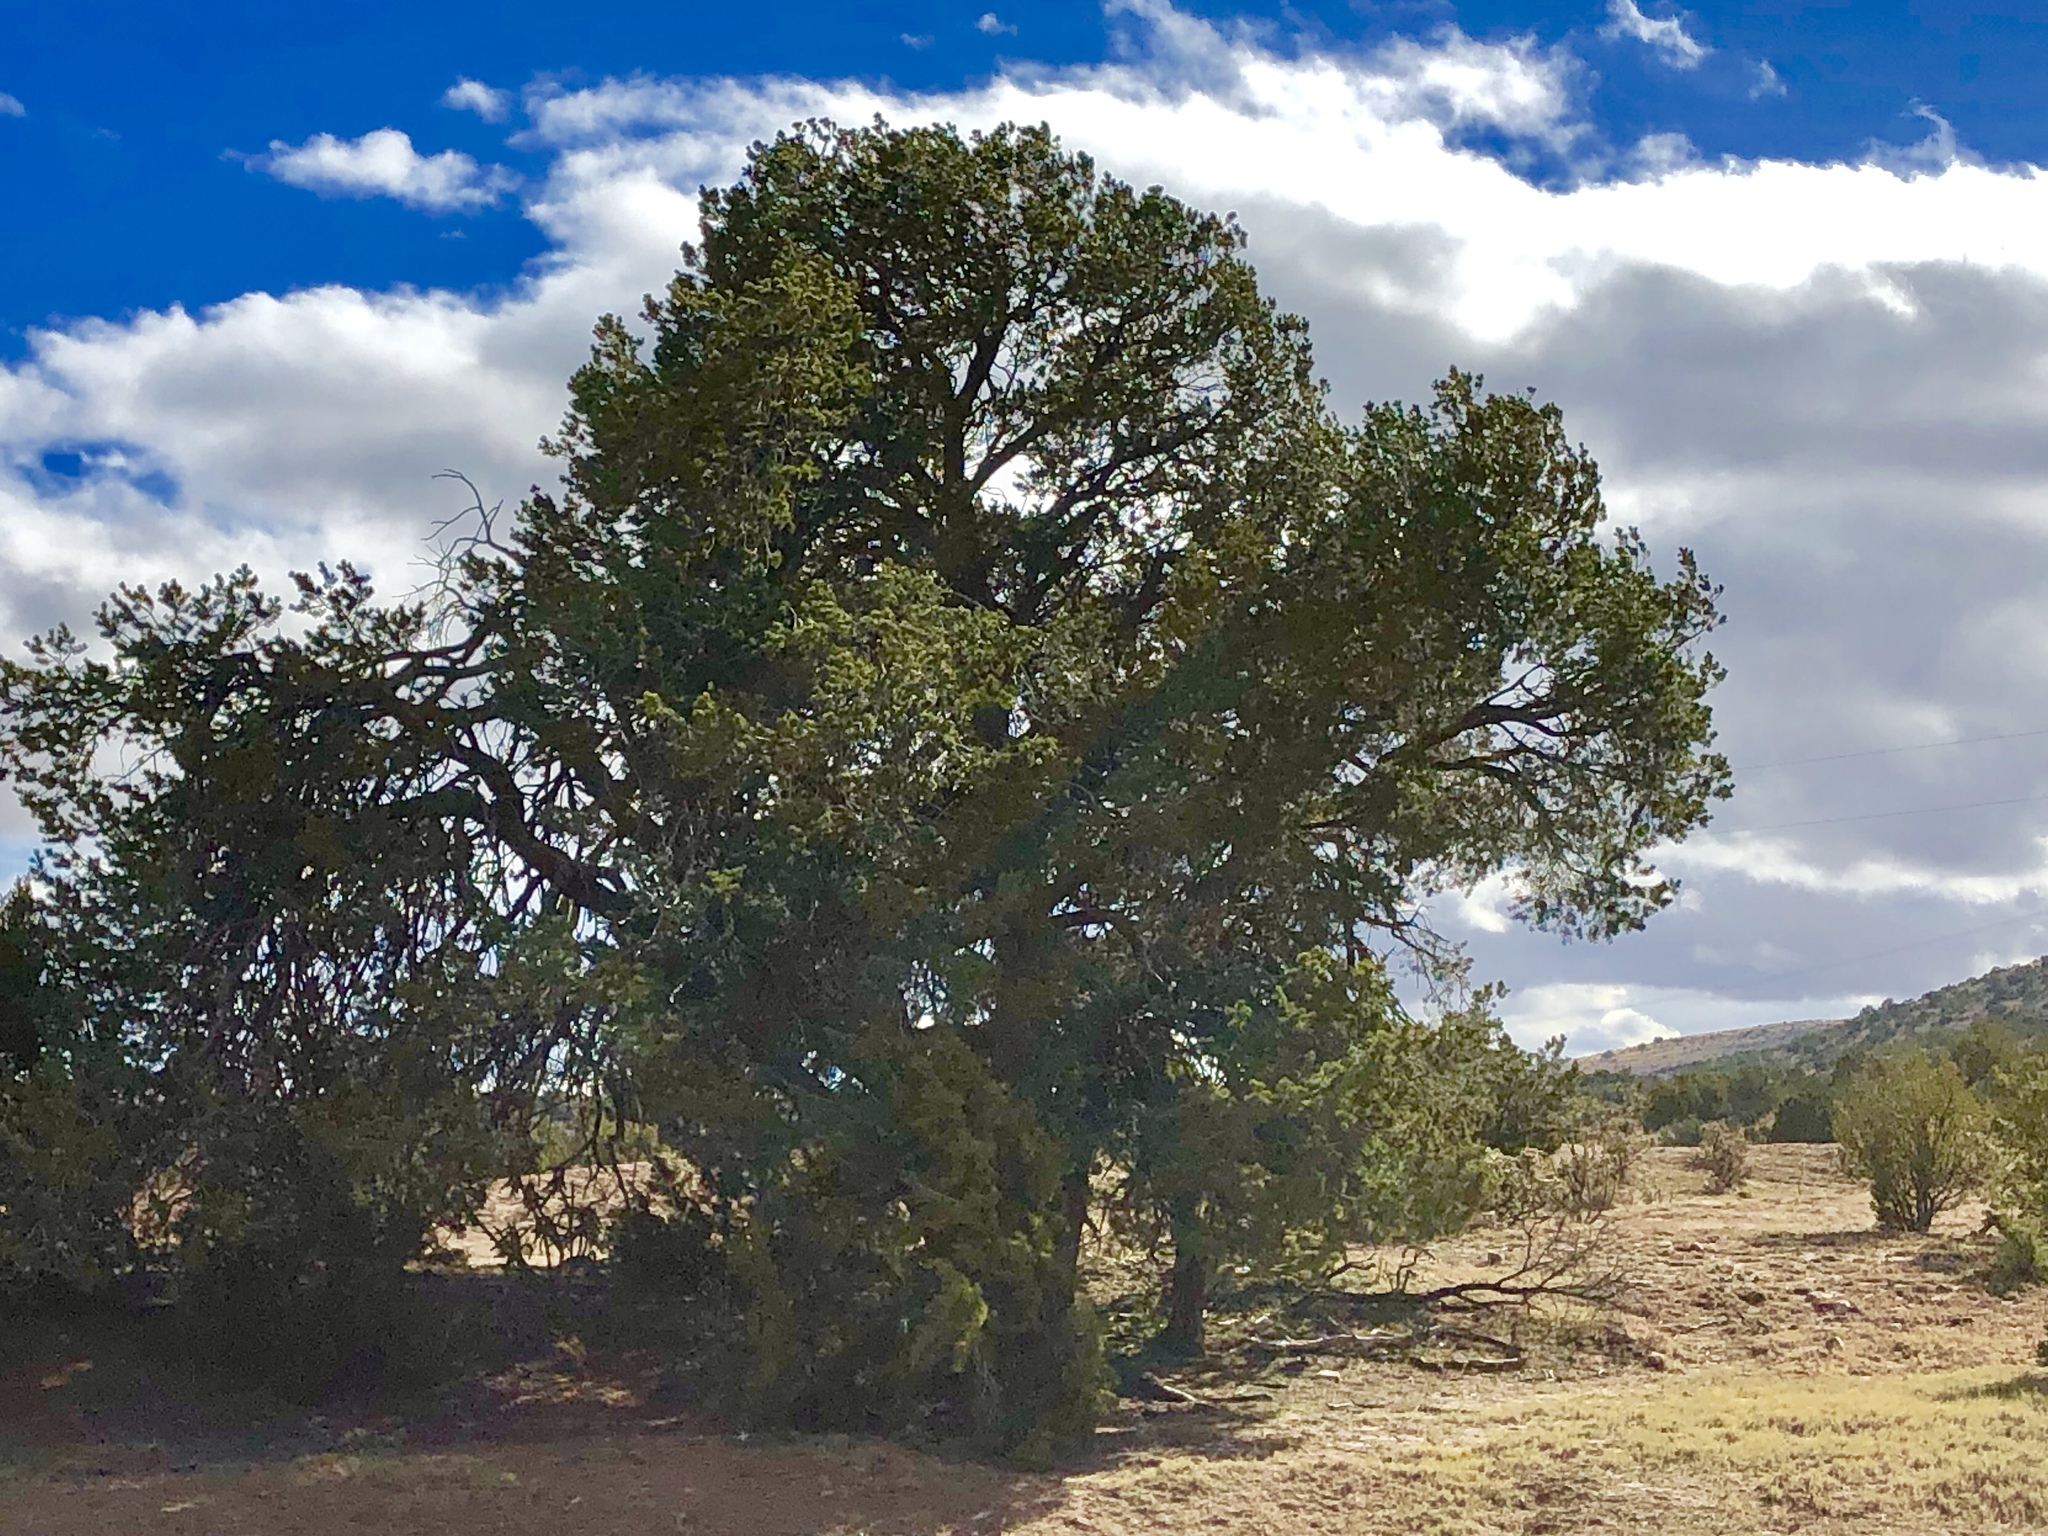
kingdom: Plantae
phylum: Tracheophyta
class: Pinopsida
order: Pinales
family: Pinaceae
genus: Pinus
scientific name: Pinus edulis
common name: Colorado pinyon
